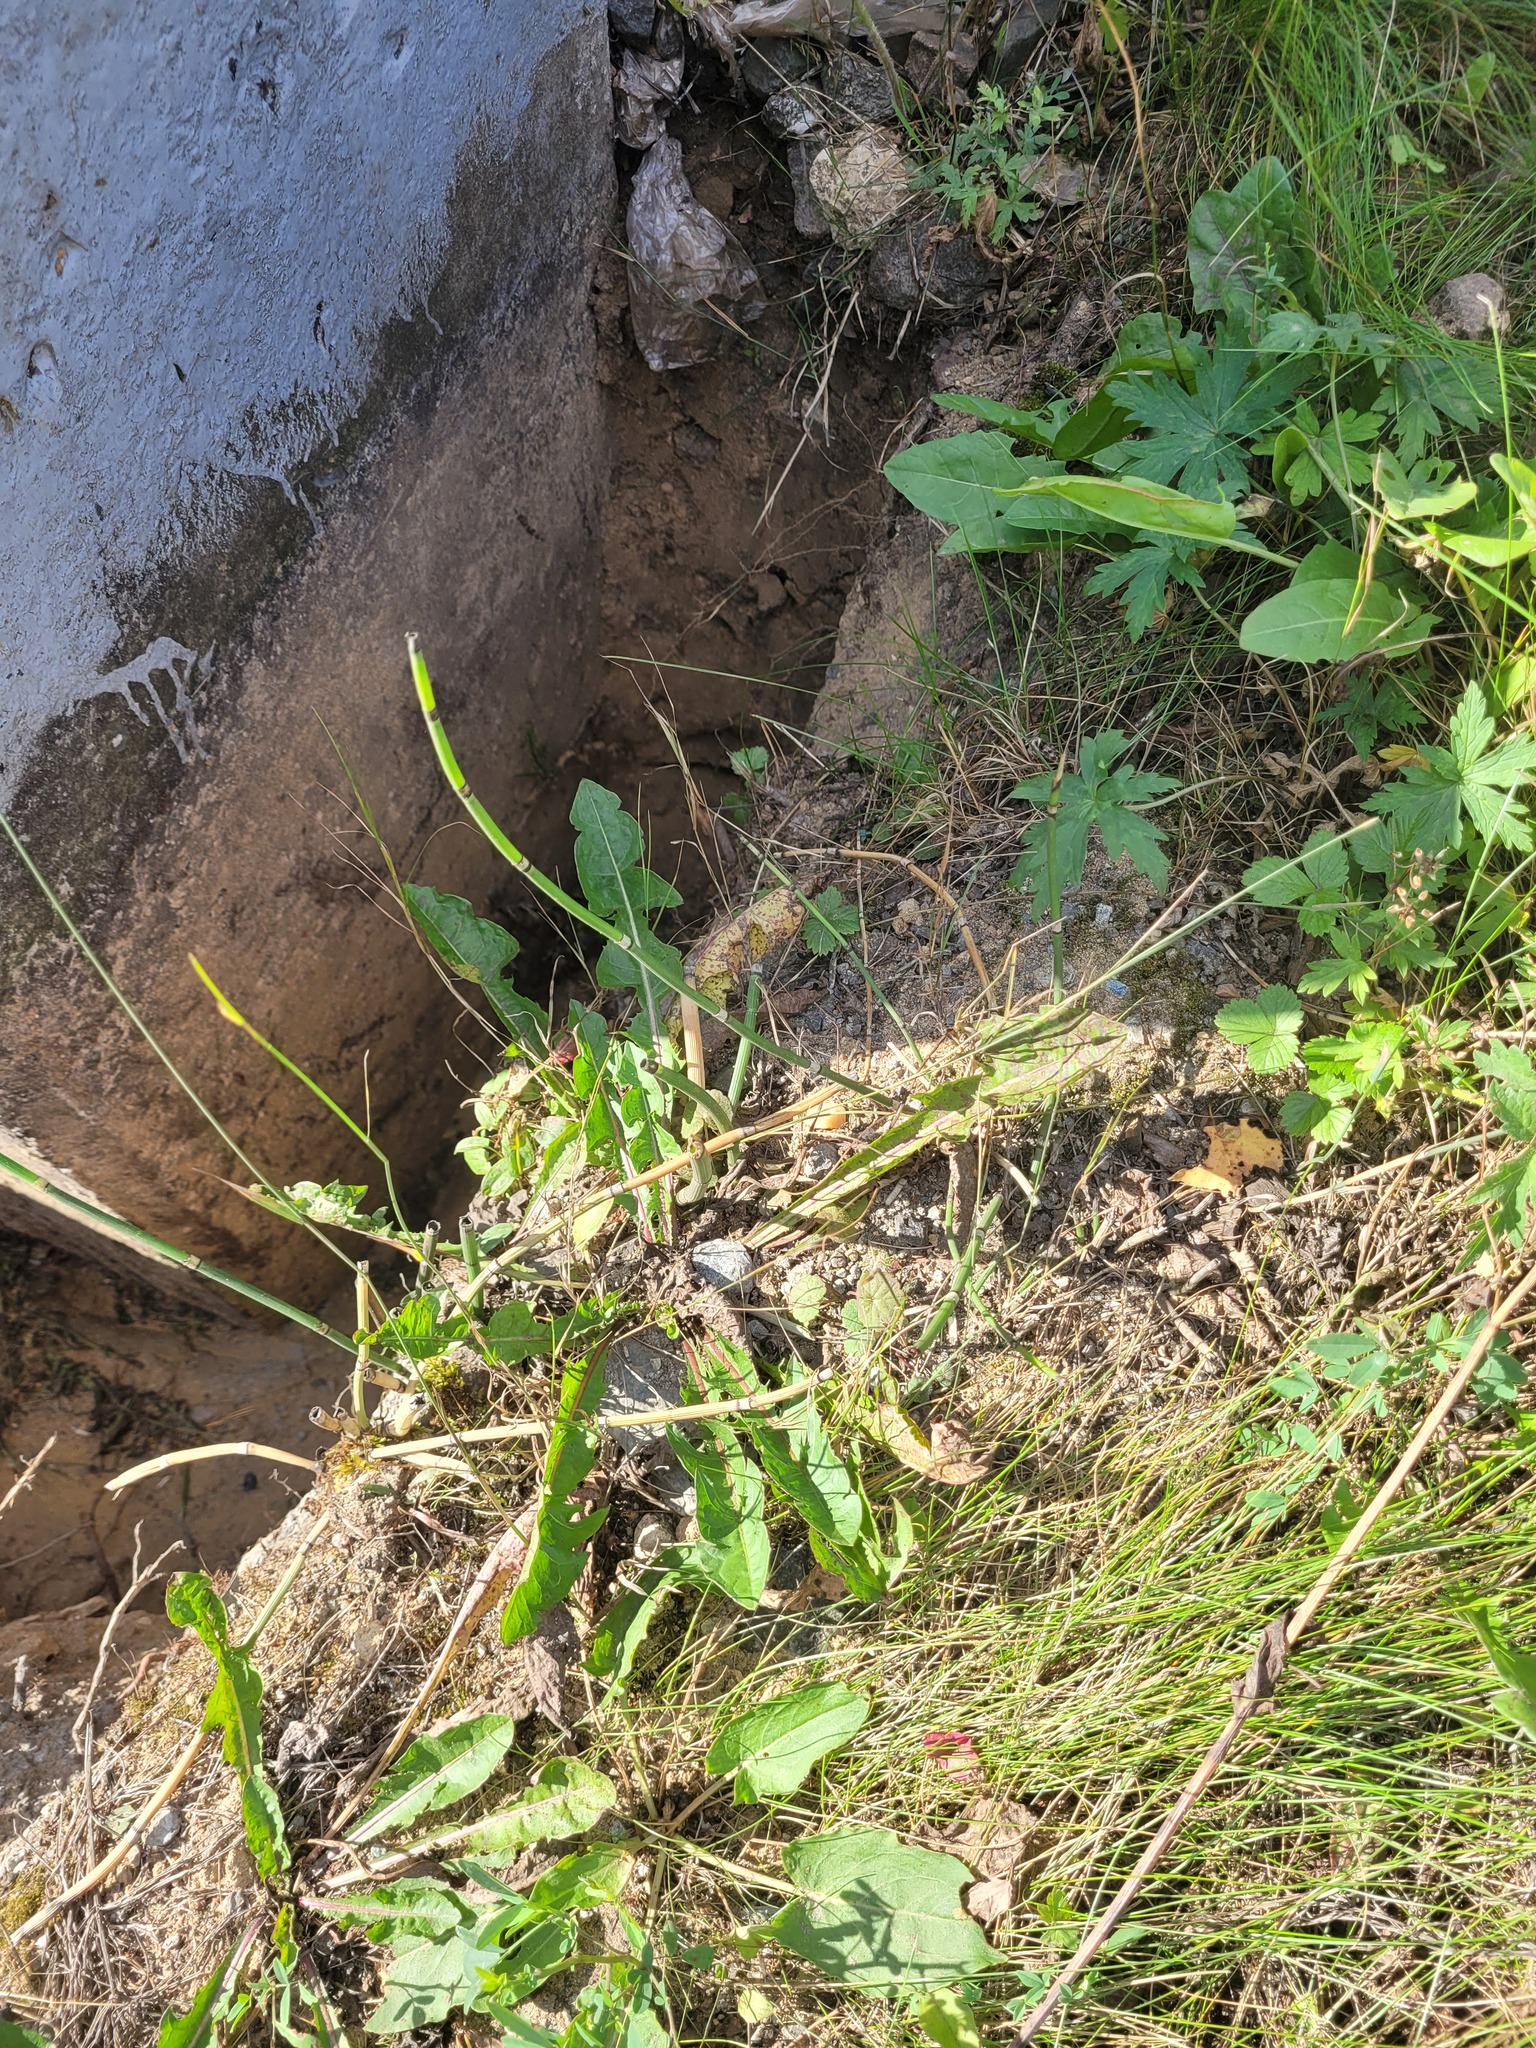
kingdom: Plantae
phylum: Tracheophyta
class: Polypodiopsida
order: Equisetales
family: Equisetaceae
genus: Equisetum
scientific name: Equisetum hyemale
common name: Rough horsetail
